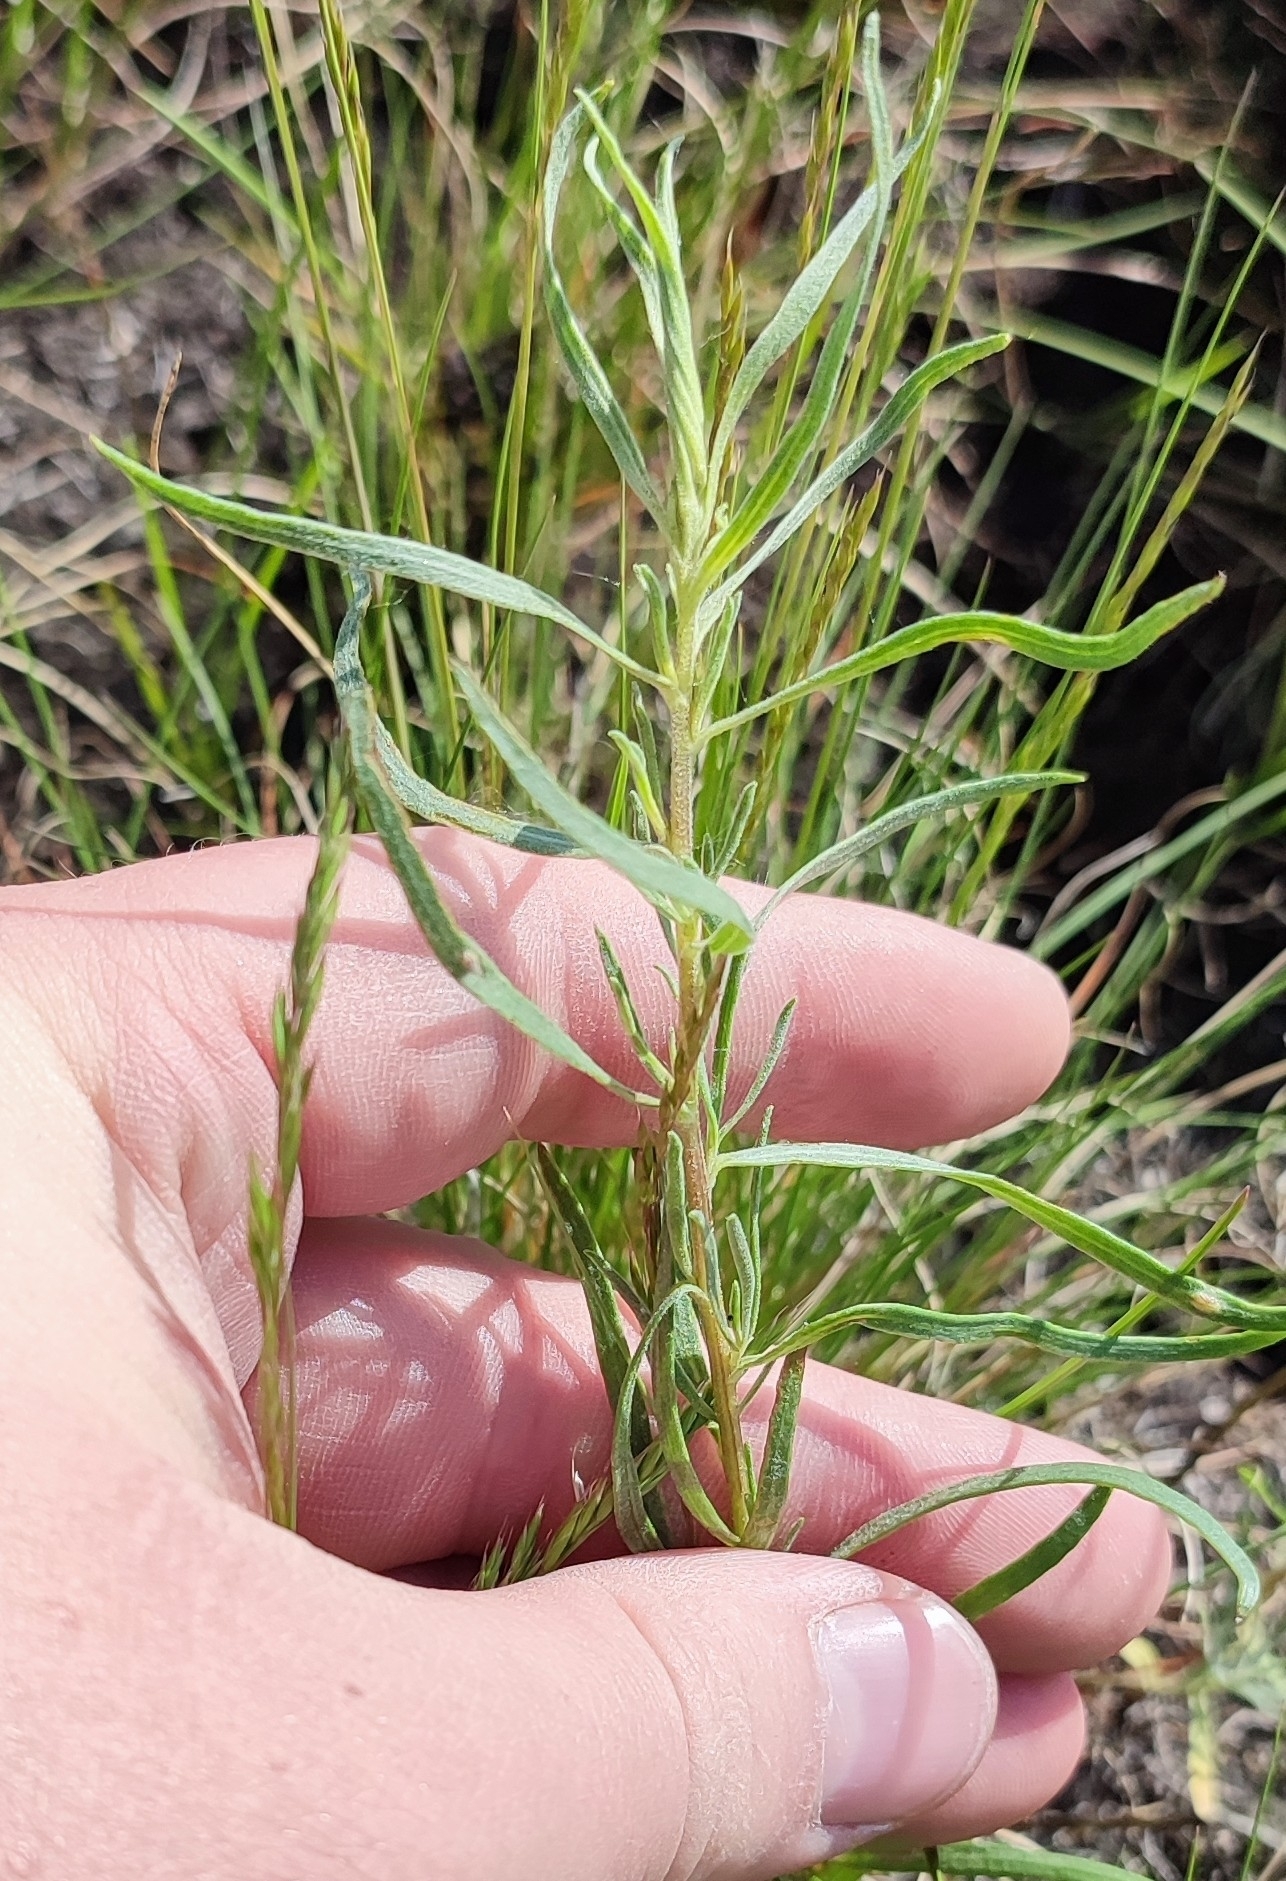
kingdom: Plantae
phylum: Tracheophyta
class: Magnoliopsida
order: Asterales
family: Asteraceae
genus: Artemisia
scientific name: Artemisia dracunculus
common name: Tarragon
